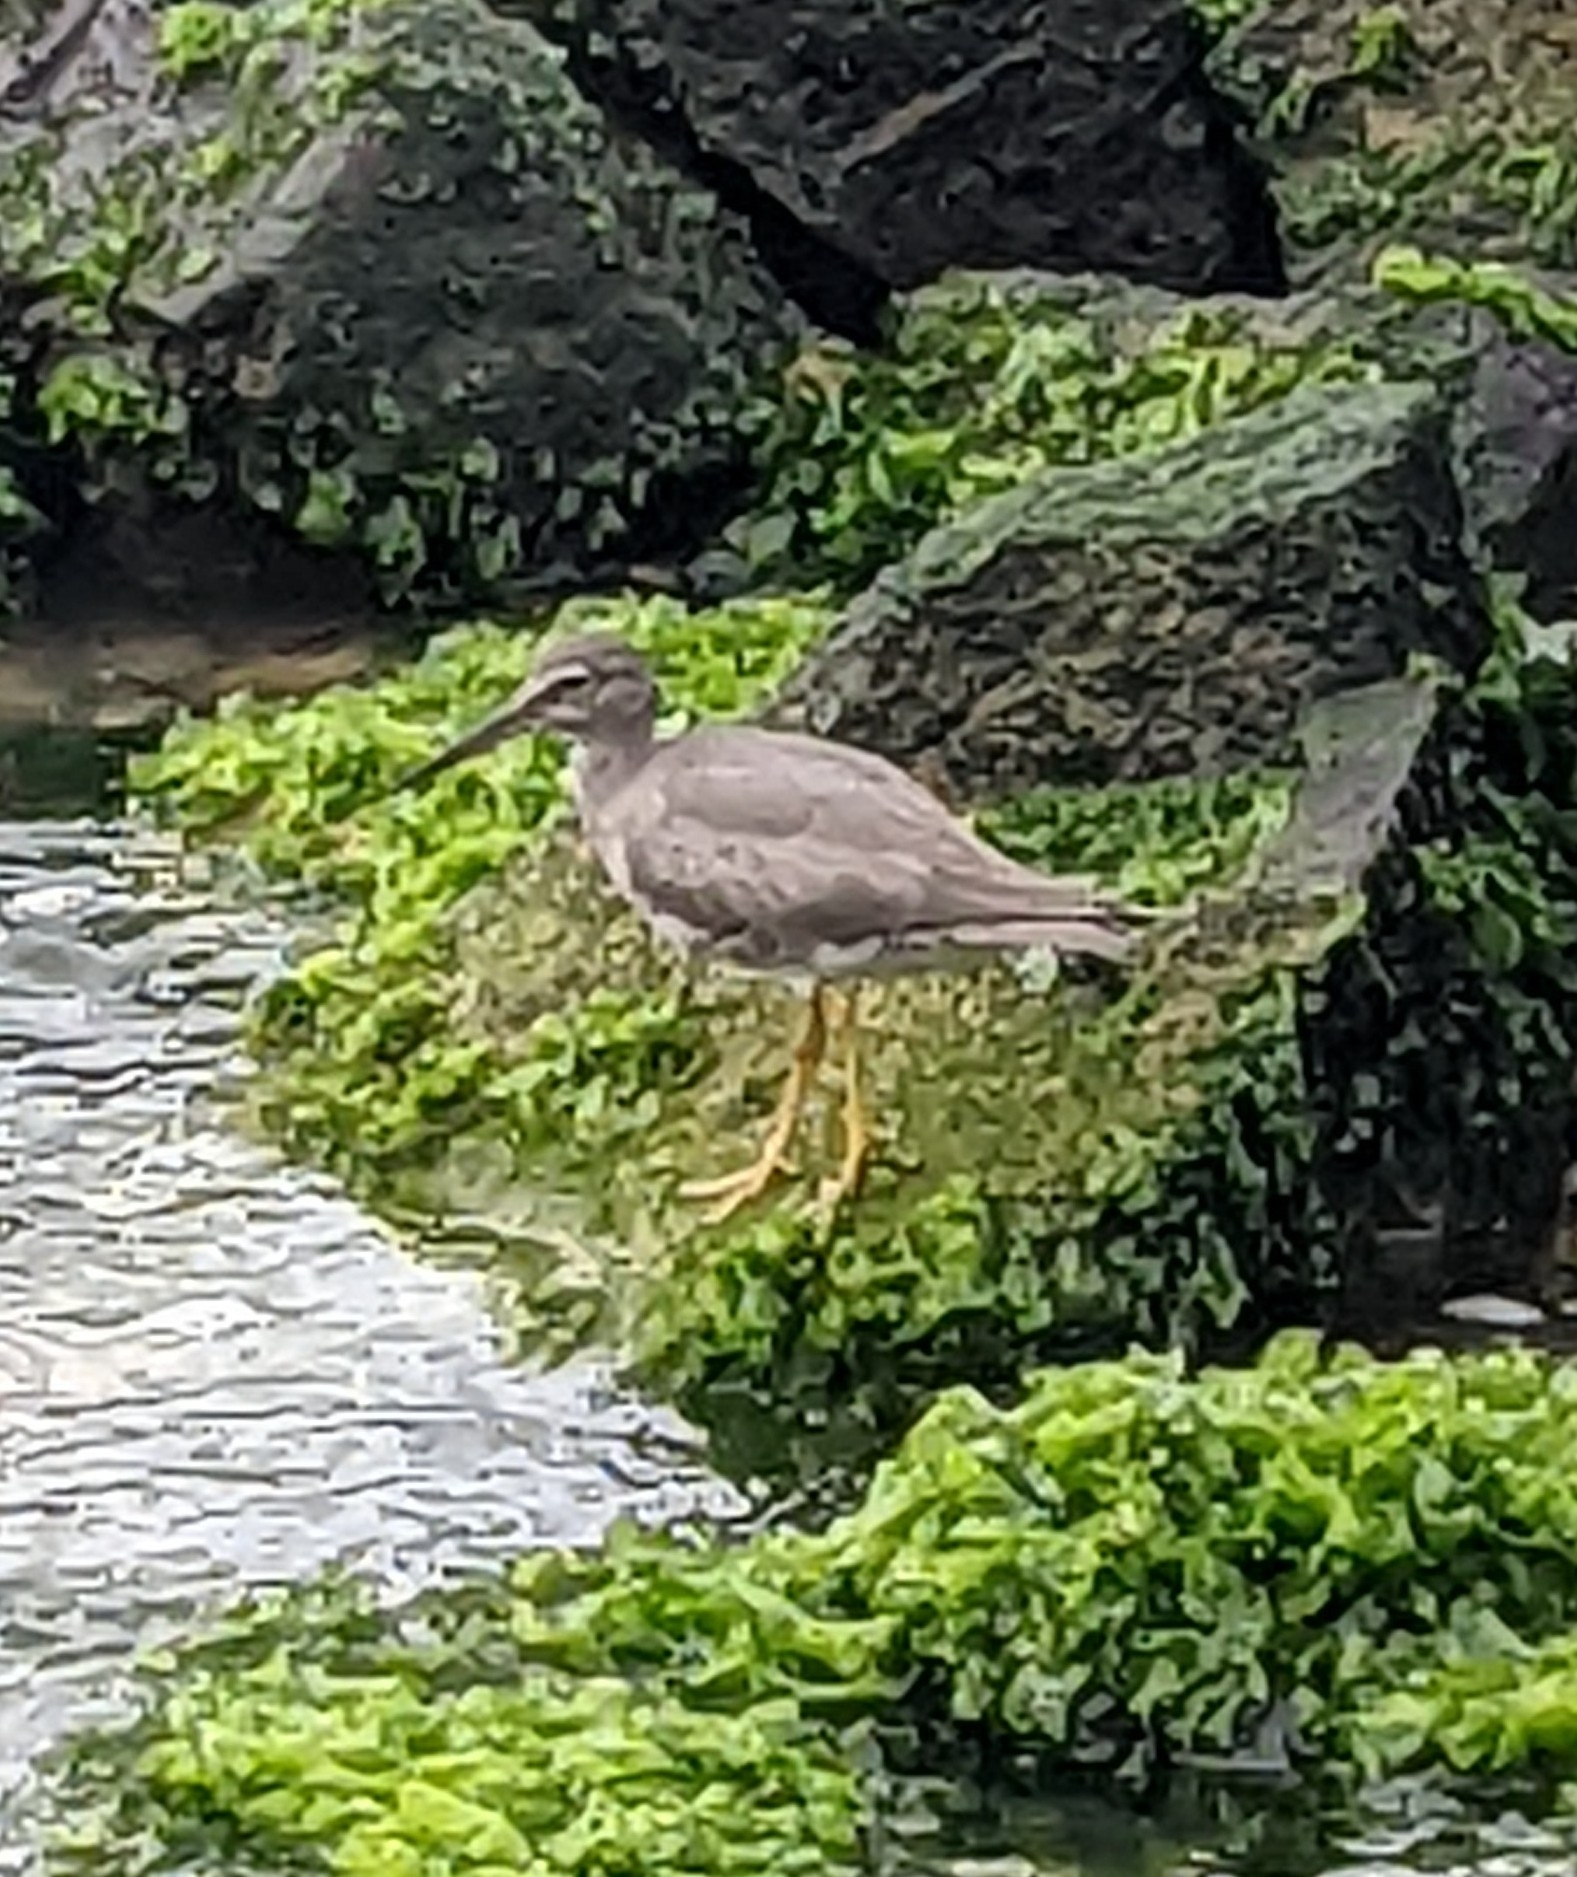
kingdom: Animalia
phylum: Chordata
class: Aves
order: Charadriiformes
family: Scolopacidae
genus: Tringa
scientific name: Tringa incana
